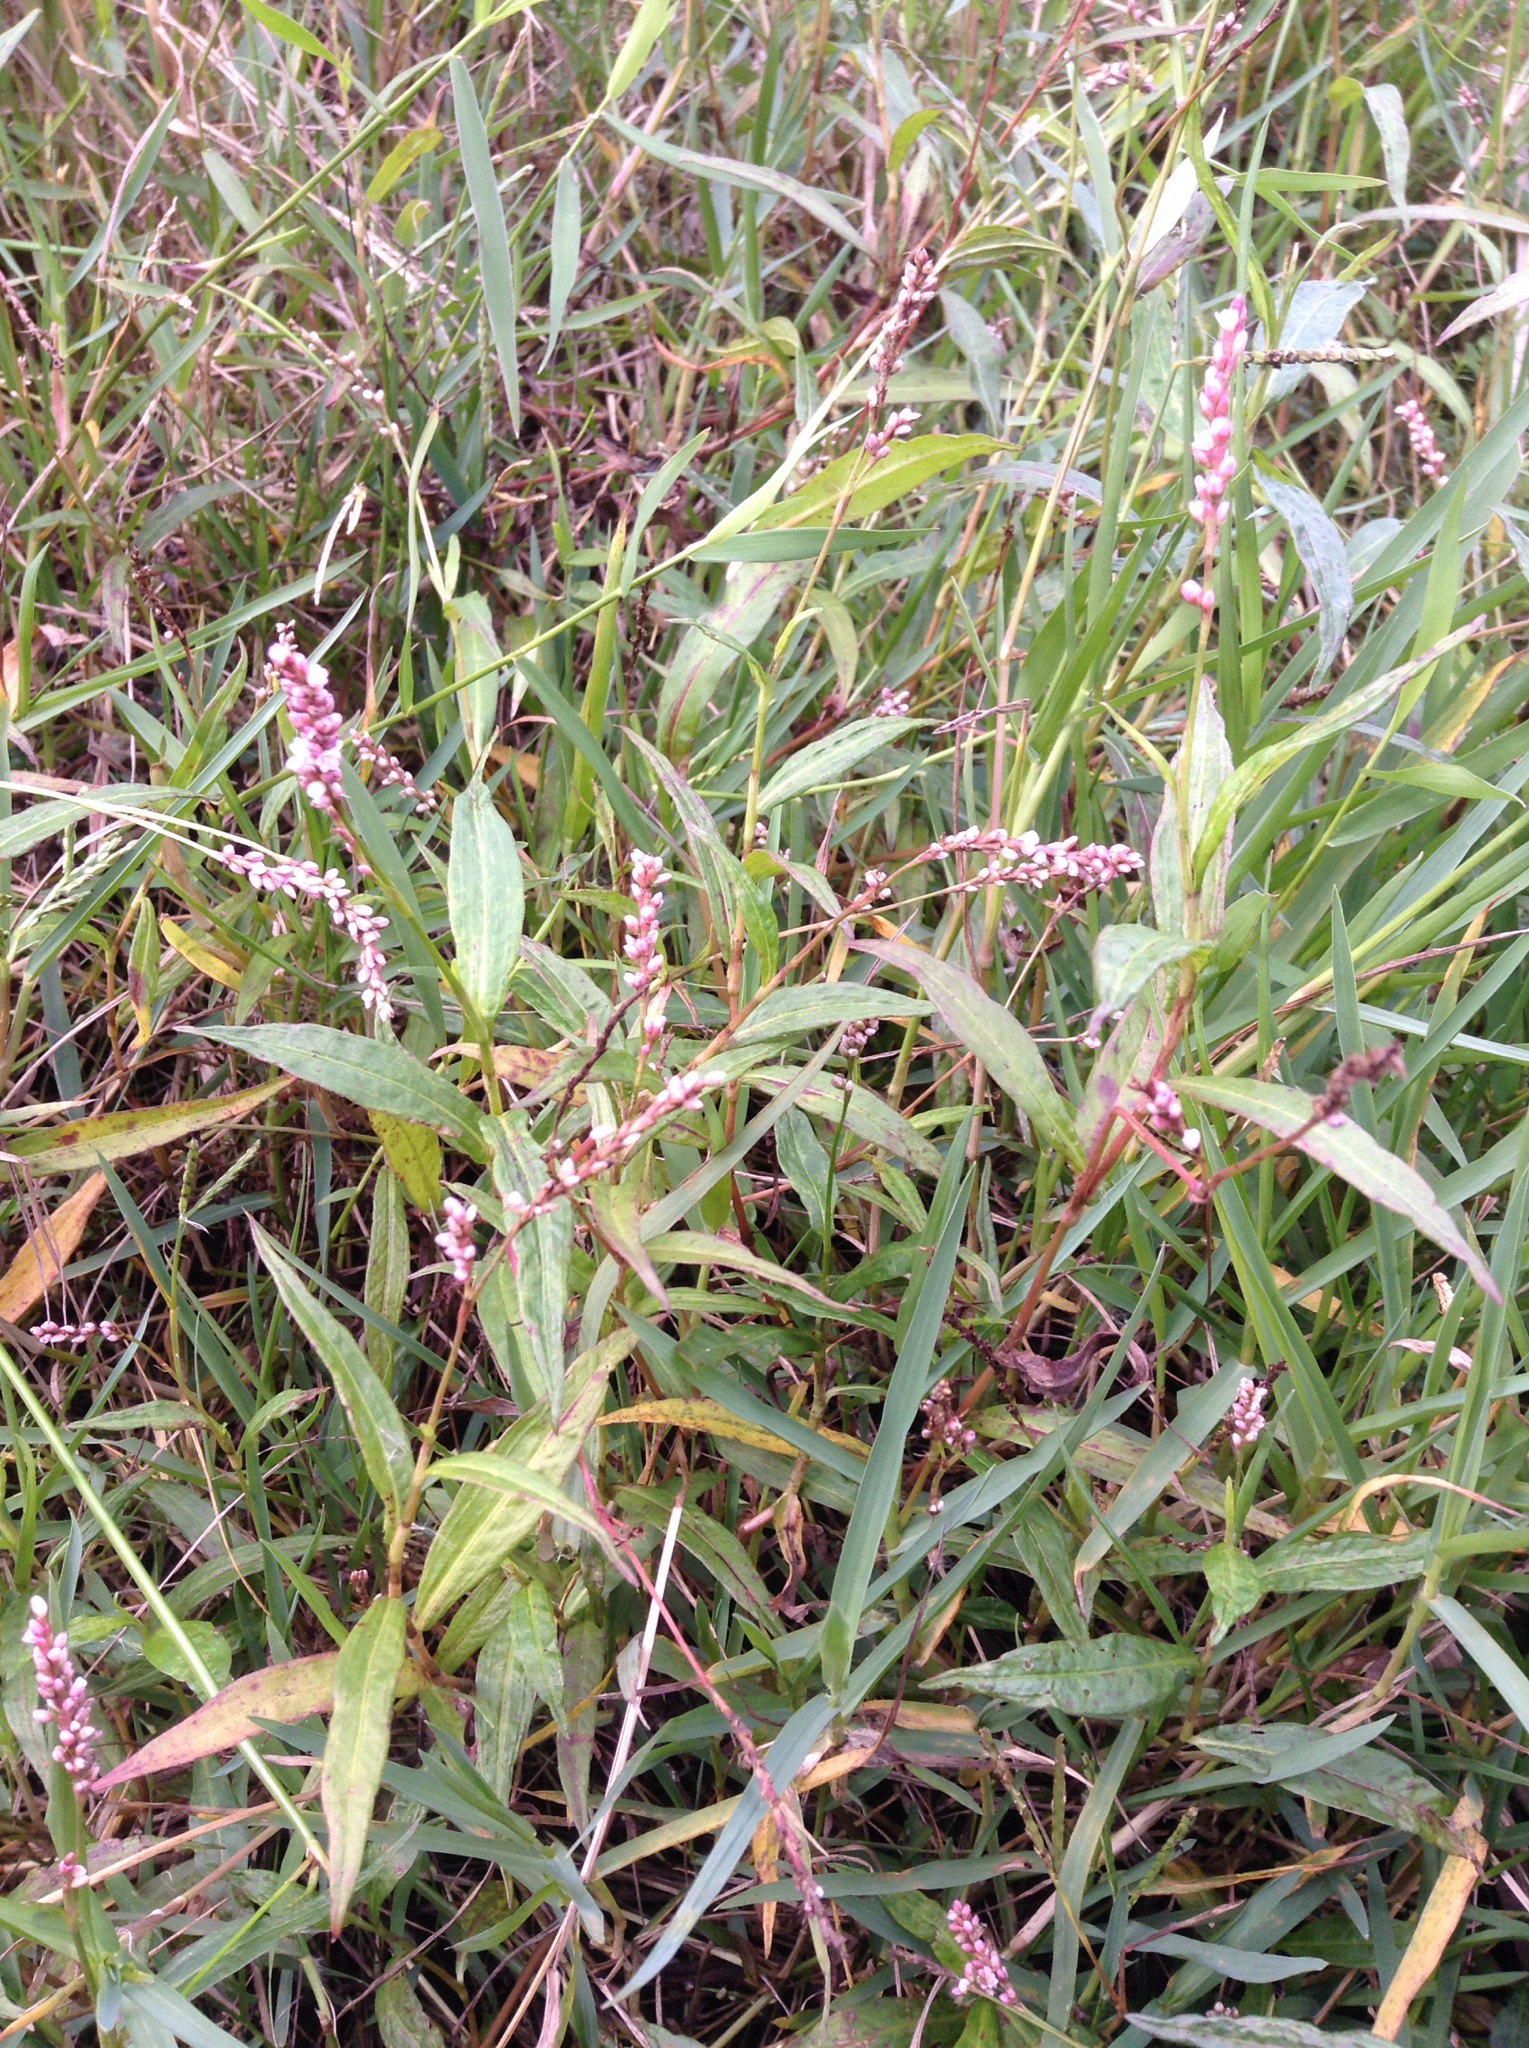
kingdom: Plantae
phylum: Tracheophyta
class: Magnoliopsida
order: Caryophyllales
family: Polygonaceae
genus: Persicaria
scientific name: Persicaria decipiens
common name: Willow-weed
